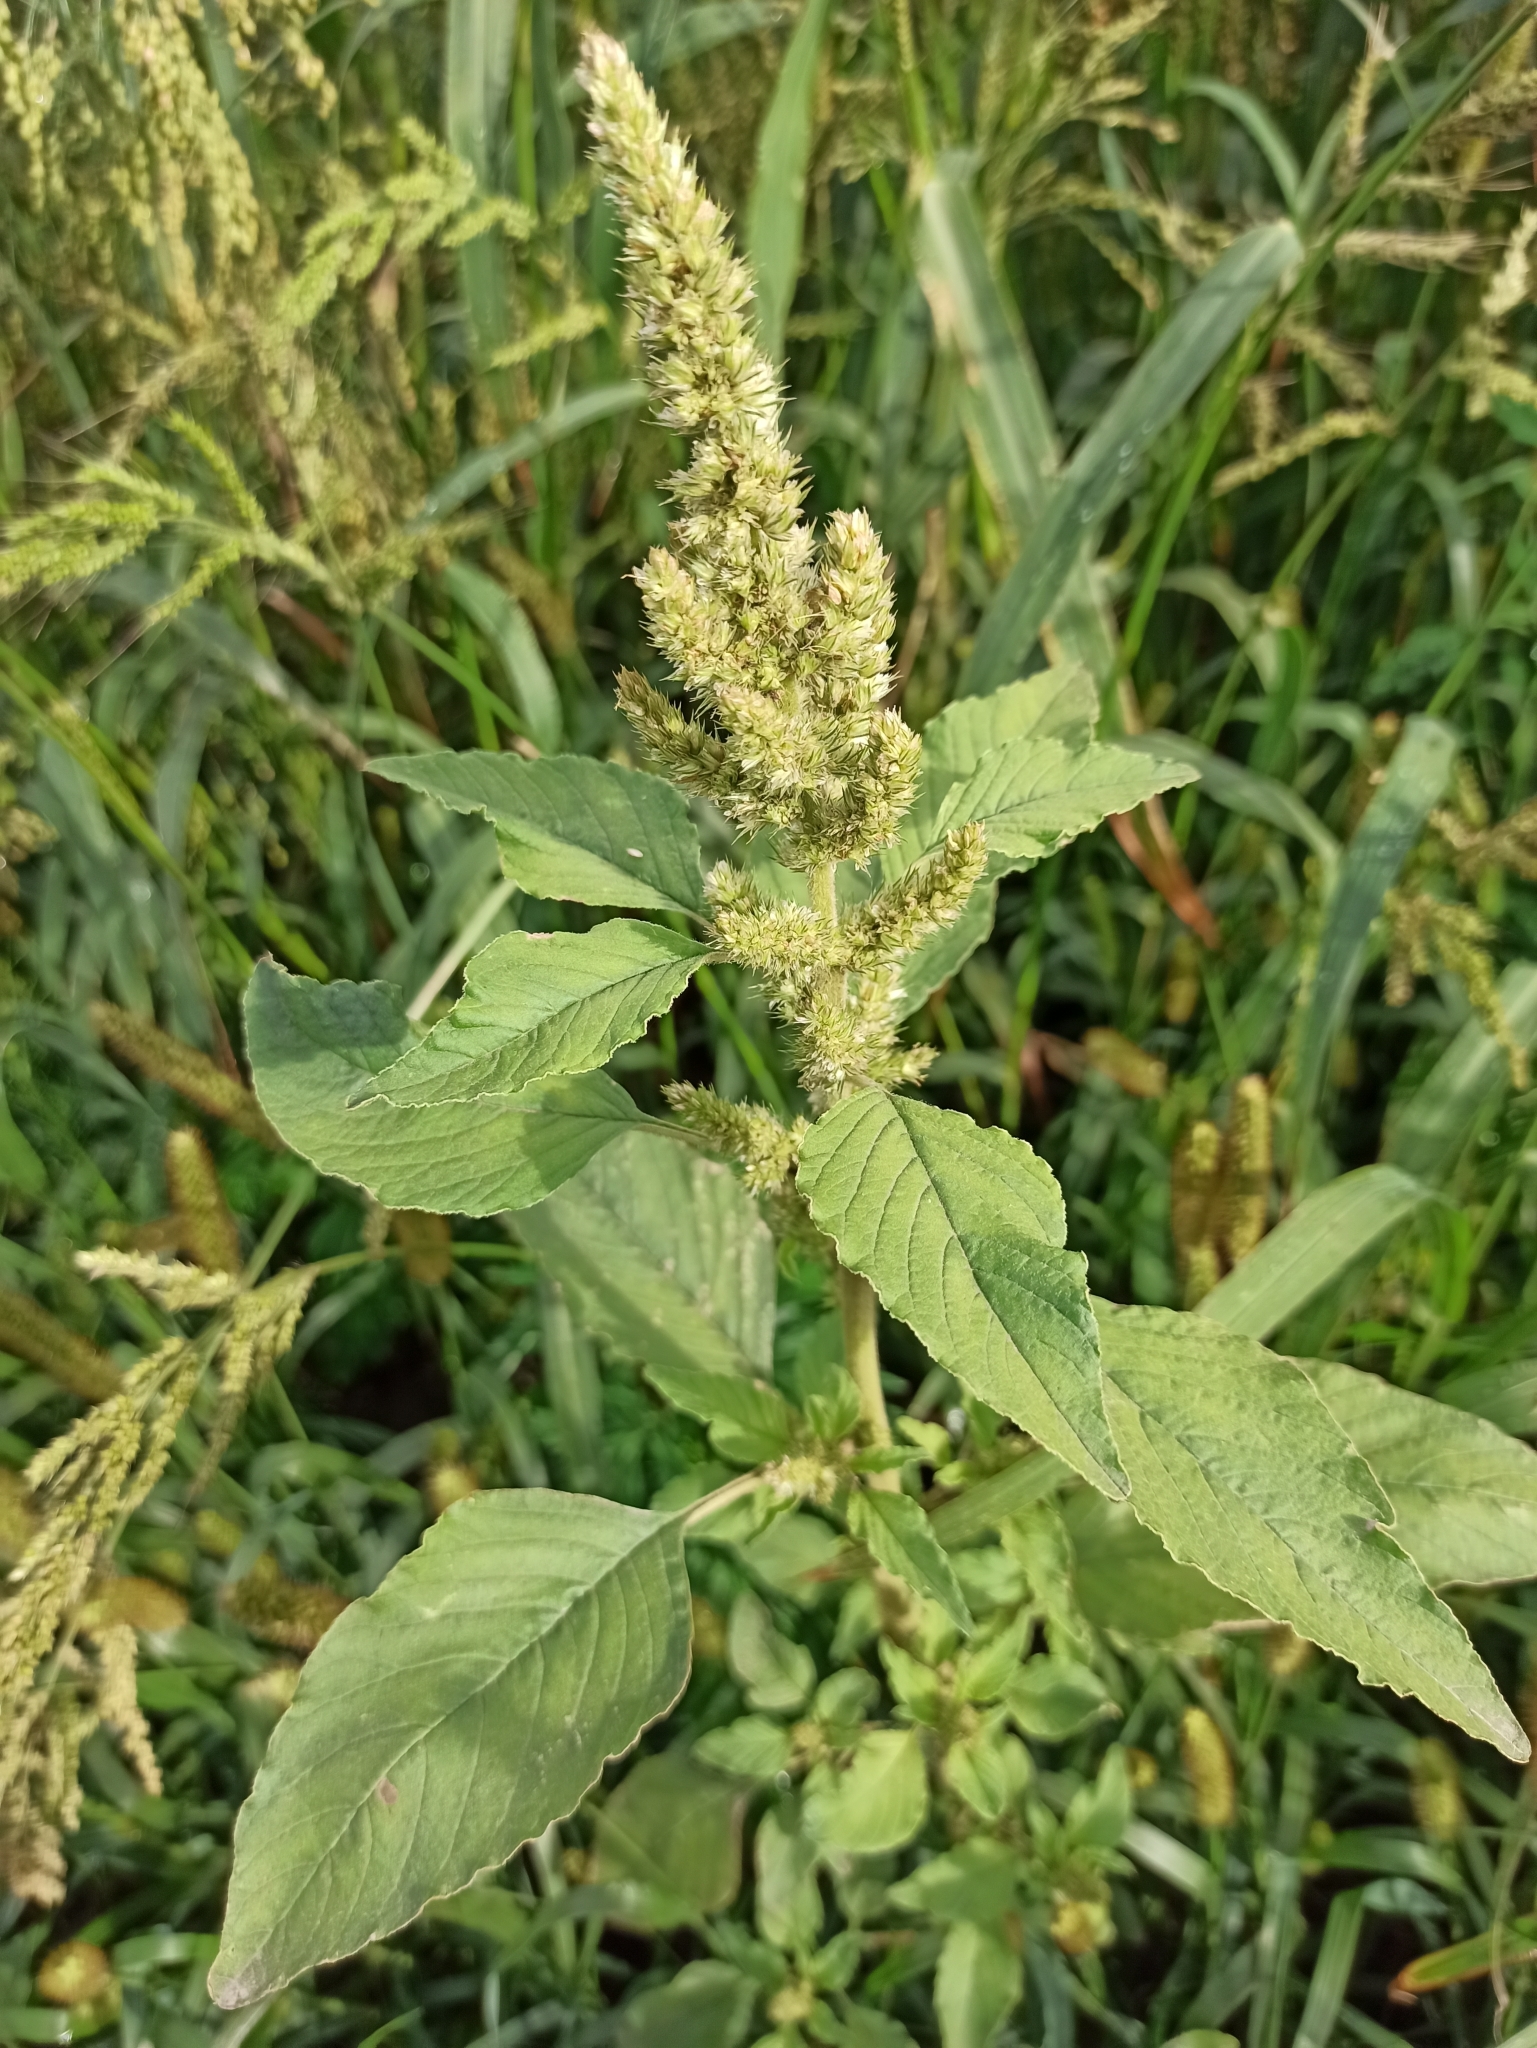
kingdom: Plantae
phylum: Tracheophyta
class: Magnoliopsida
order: Caryophyllales
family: Amaranthaceae
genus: Amaranthus
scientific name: Amaranthus retroflexus
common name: Redroot amaranth
